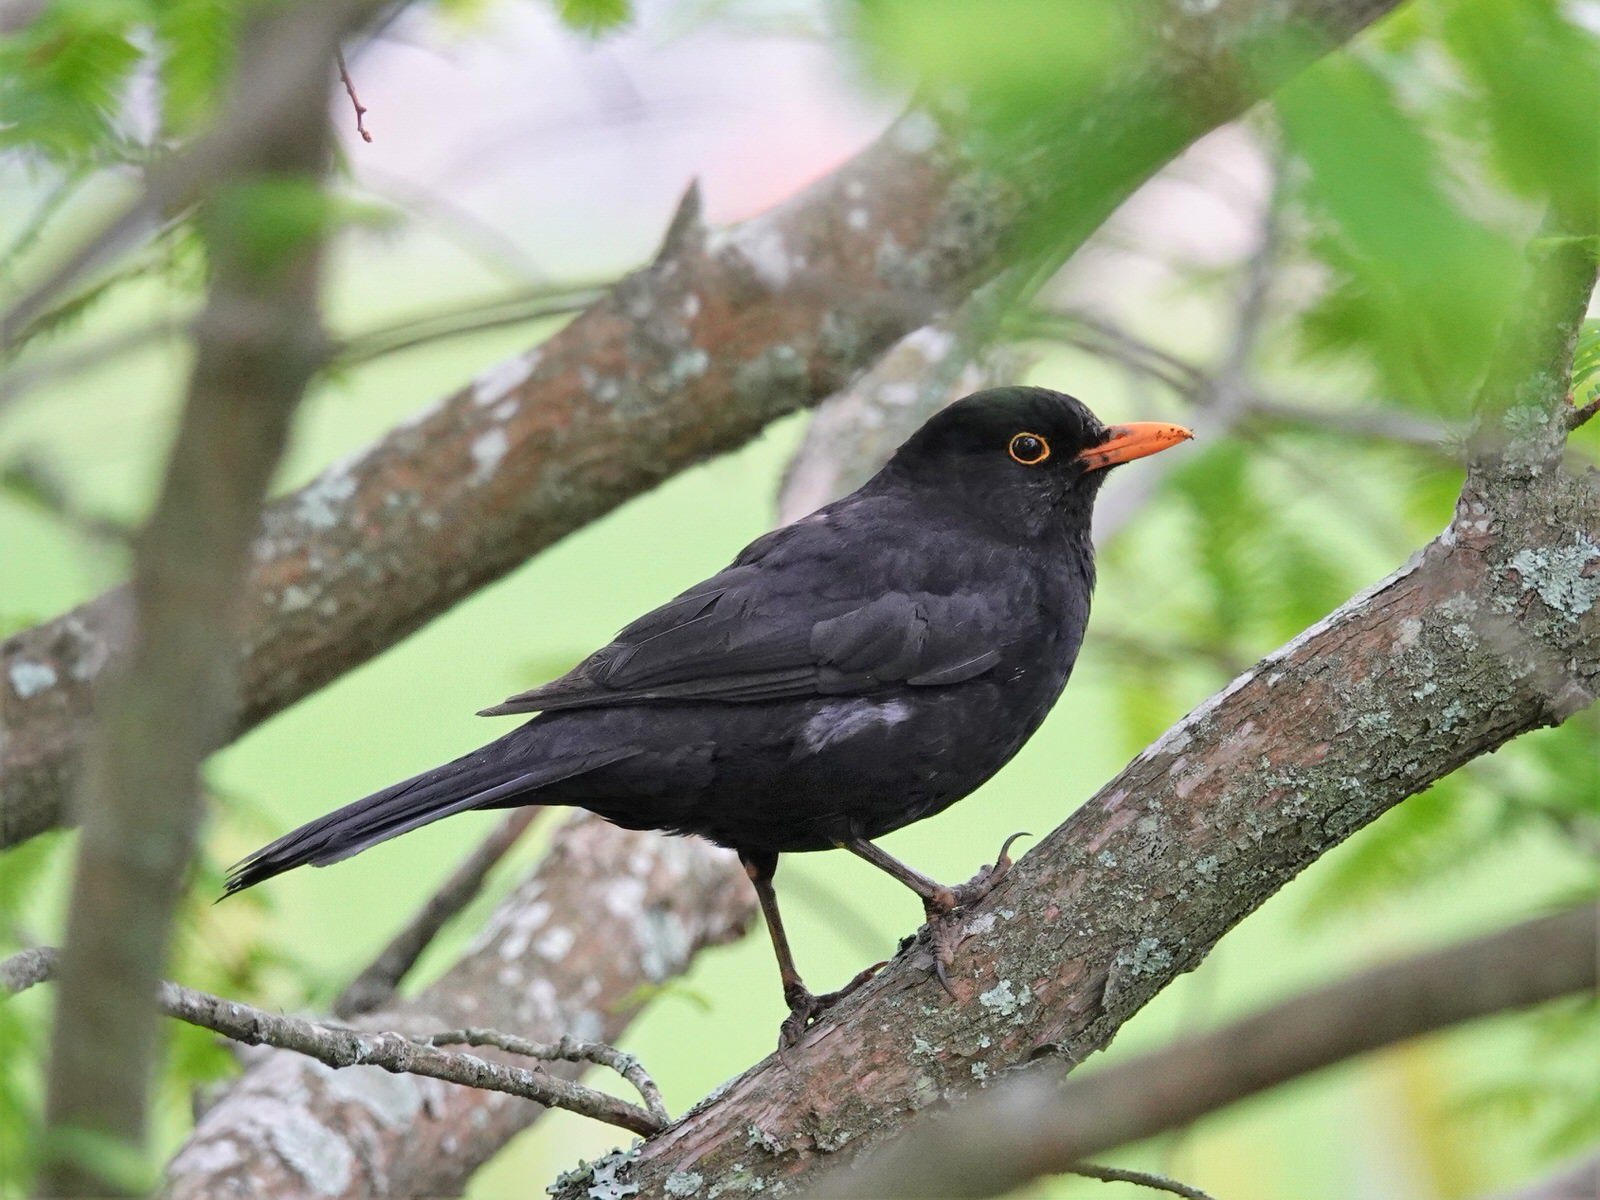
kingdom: Animalia
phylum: Chordata
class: Aves
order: Passeriformes
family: Turdidae
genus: Turdus
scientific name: Turdus merula
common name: Common blackbird
